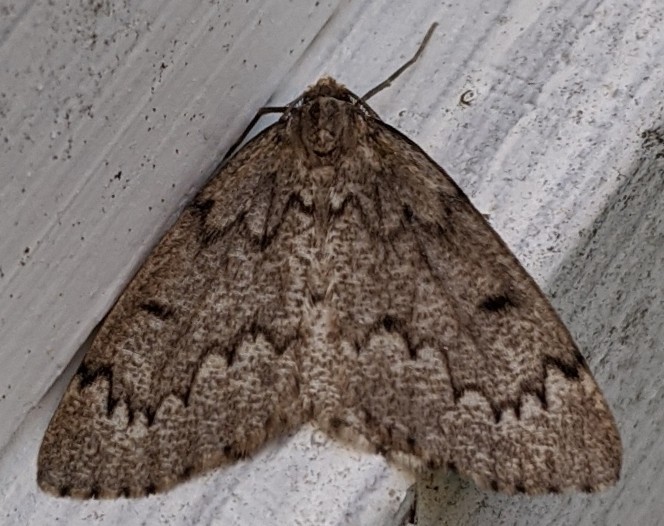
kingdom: Animalia
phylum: Arthropoda
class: Insecta
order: Lepidoptera
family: Geometridae
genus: Nepytia
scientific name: Nepytia canosaria
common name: False hemlock looper
